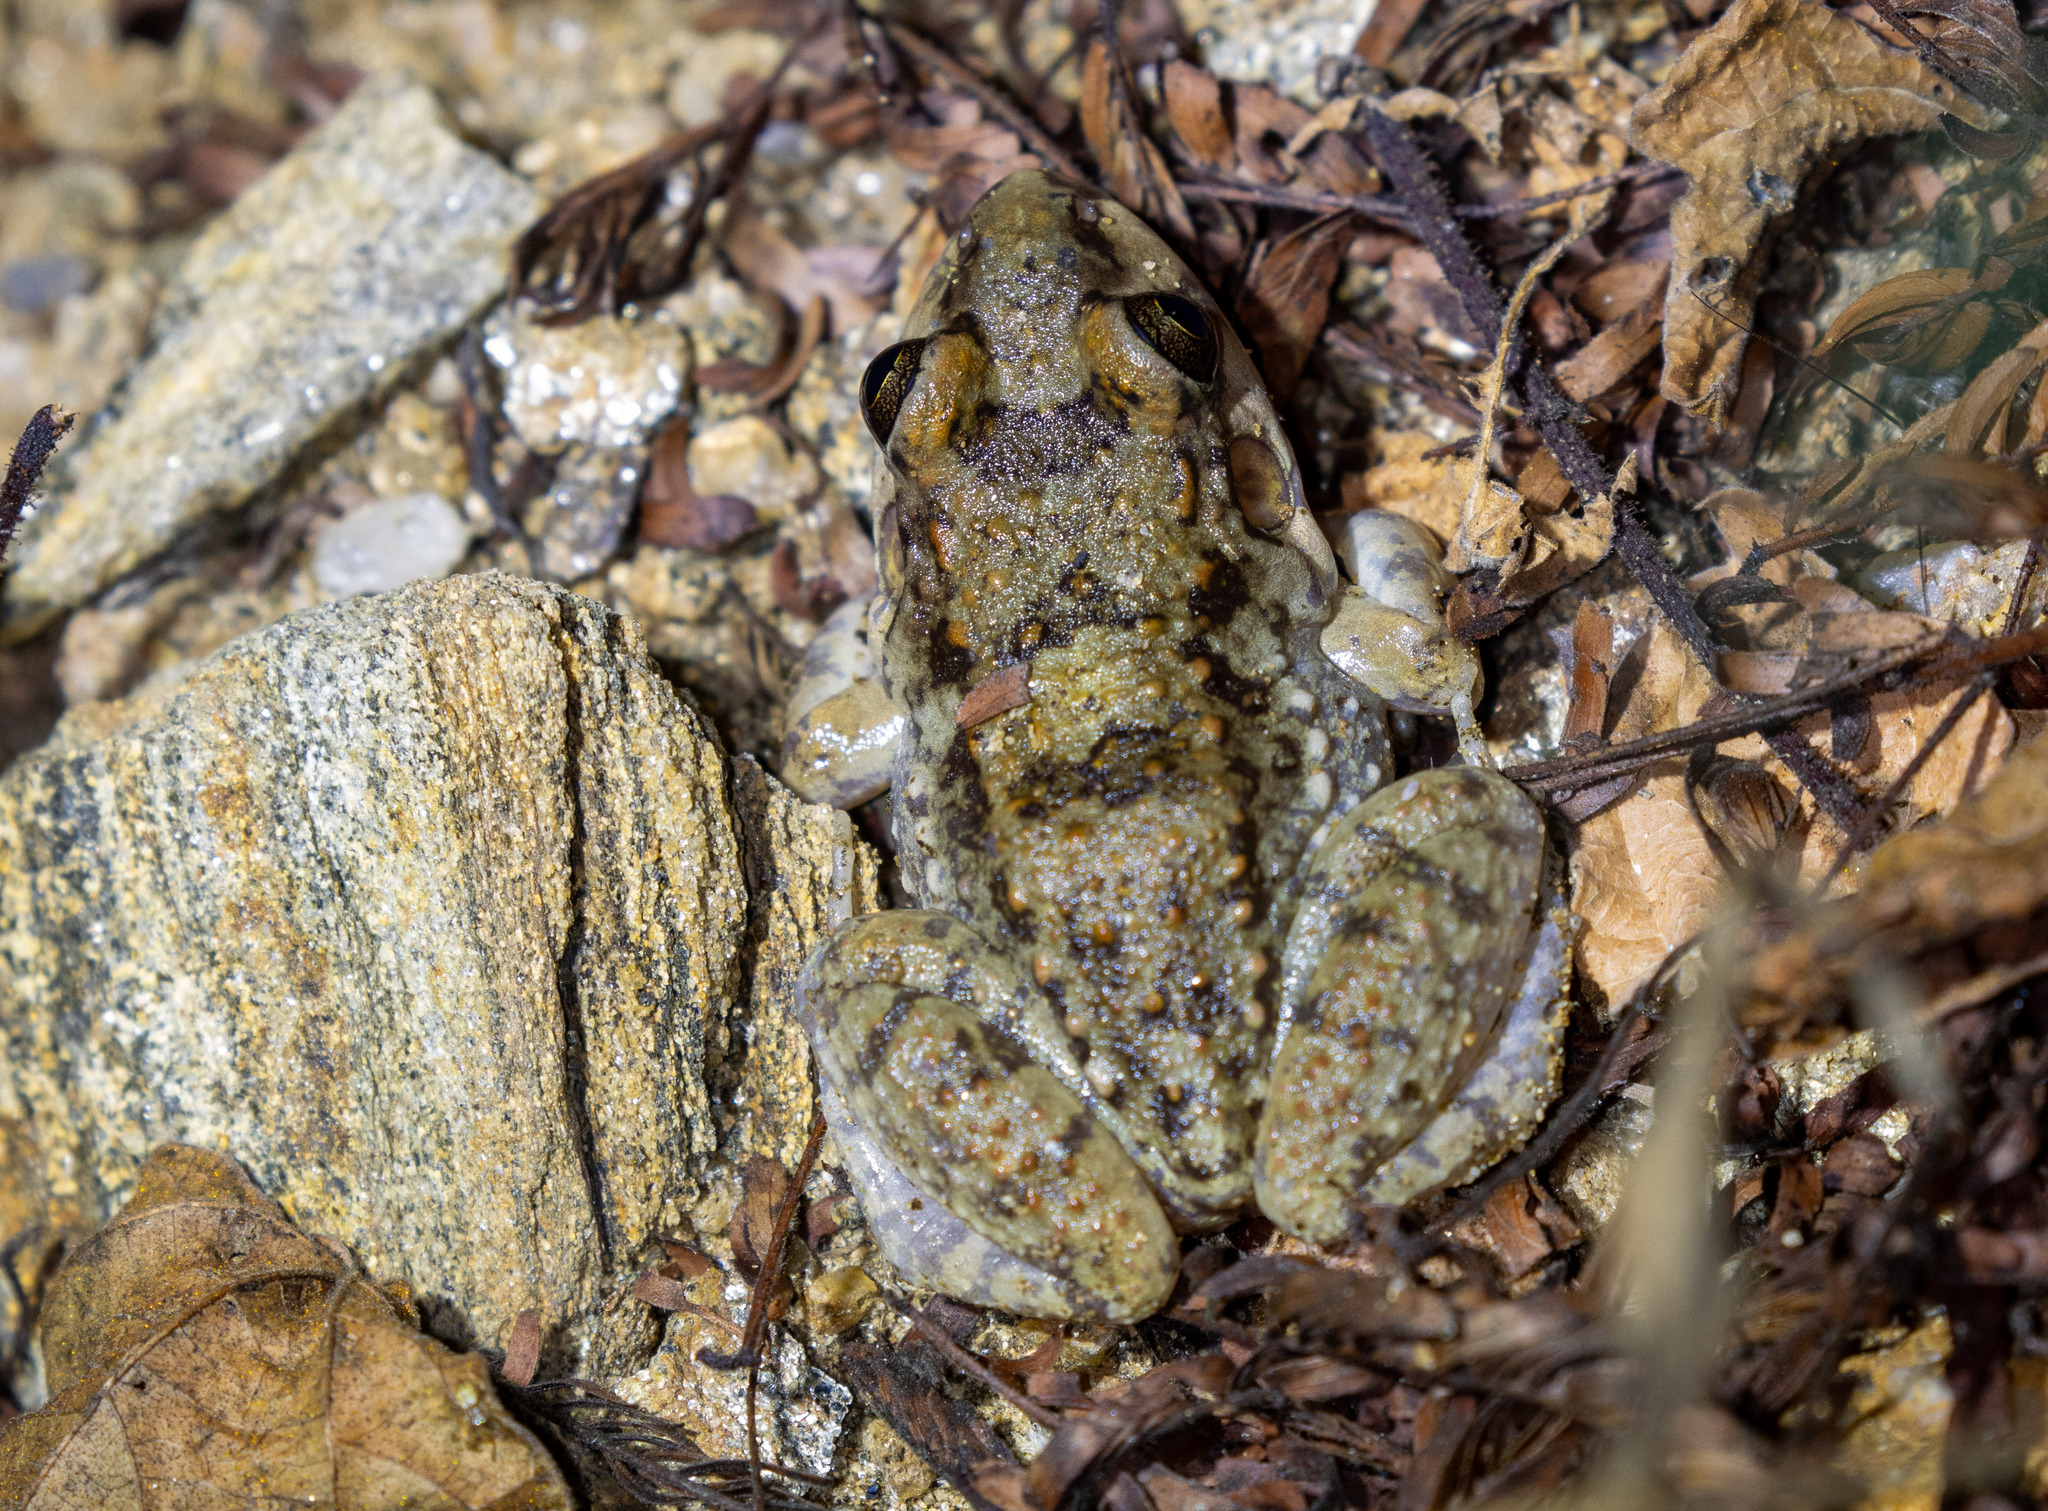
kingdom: Animalia
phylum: Chordata
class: Amphibia
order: Anura
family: Leptodactylidae
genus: Leptodactylus
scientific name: Leptodactylus troglodytes
